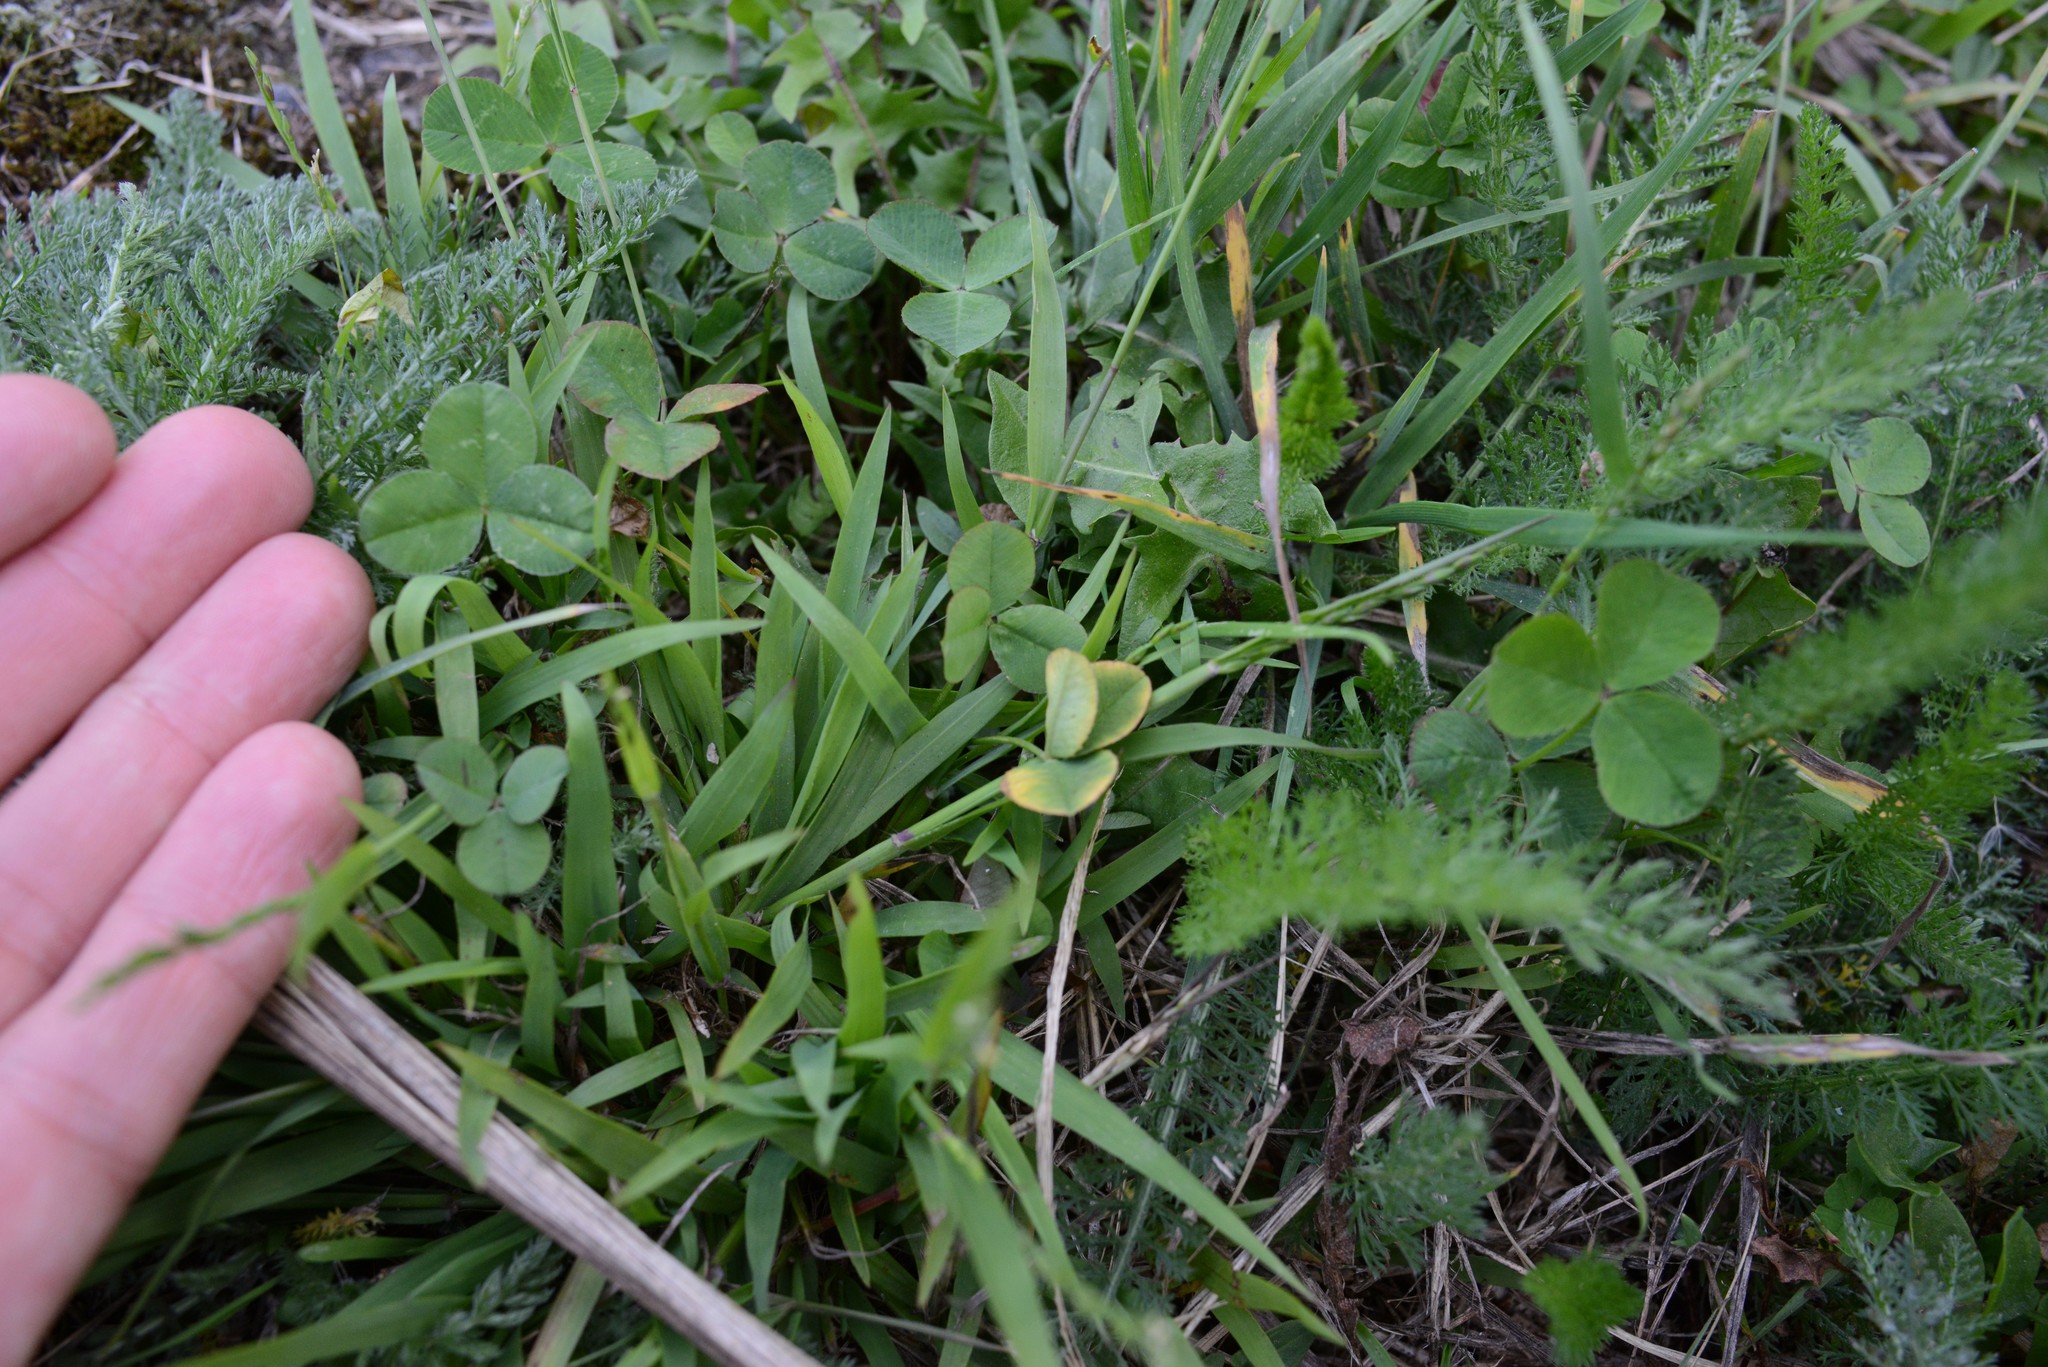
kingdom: Plantae
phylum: Tracheophyta
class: Magnoliopsida
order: Fabales
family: Fabaceae
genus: Trifolium
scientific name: Trifolium repens
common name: White clover
